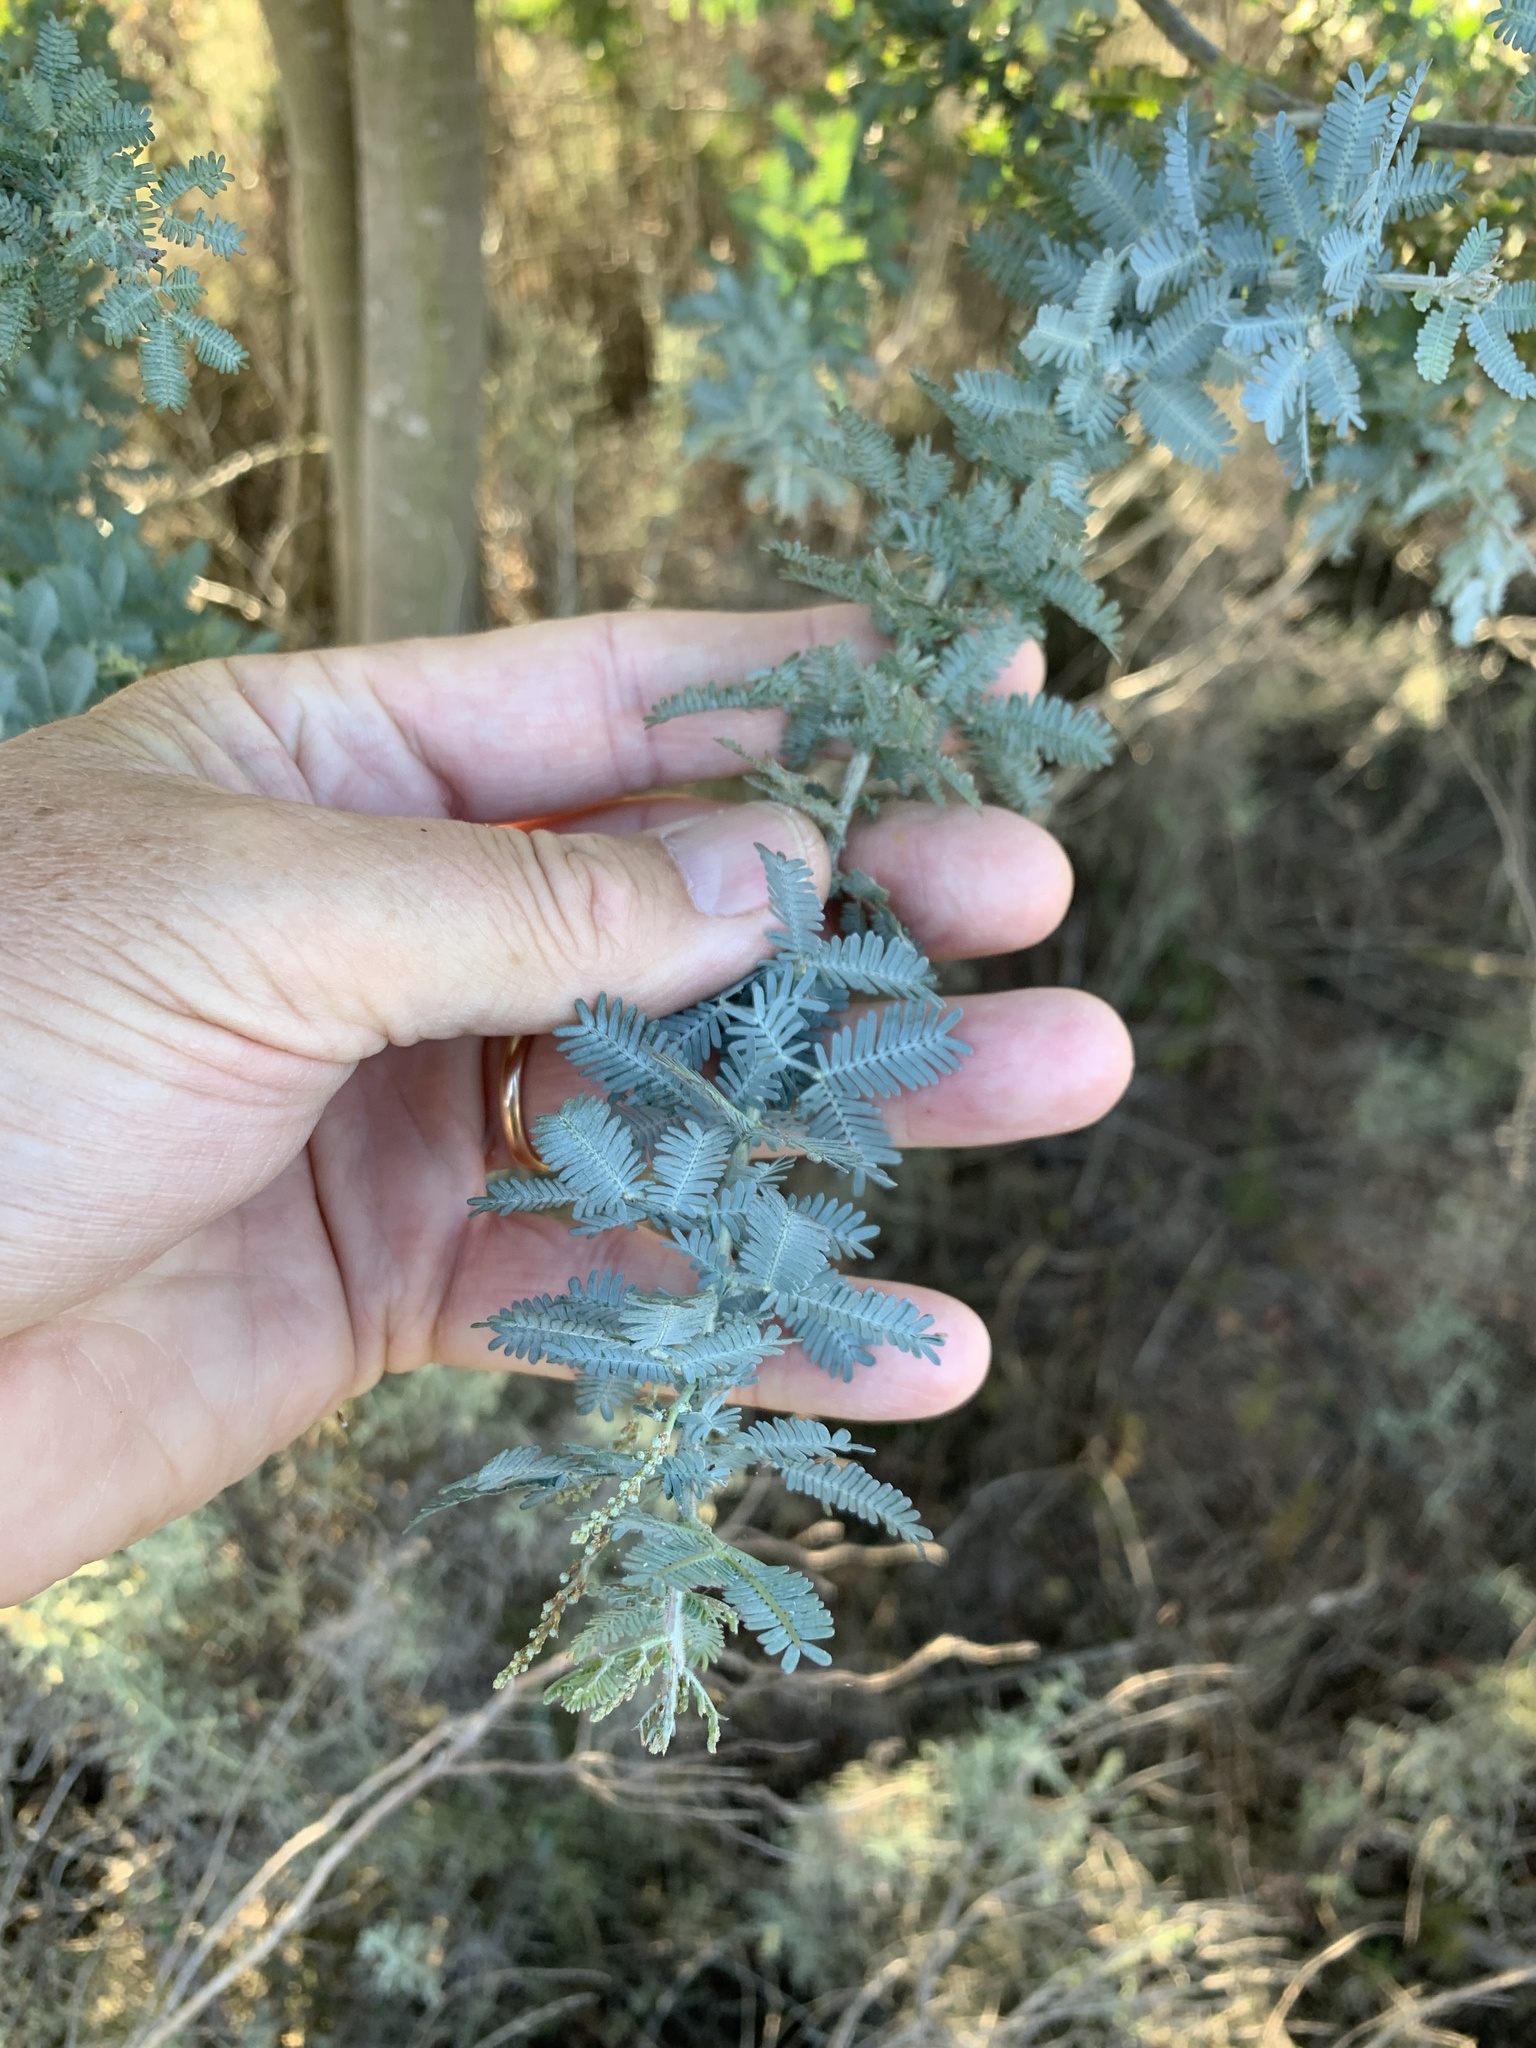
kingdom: Plantae
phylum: Tracheophyta
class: Magnoliopsida
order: Fabales
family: Fabaceae
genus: Acacia
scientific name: Acacia baileyana
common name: Cootamundra wattle
